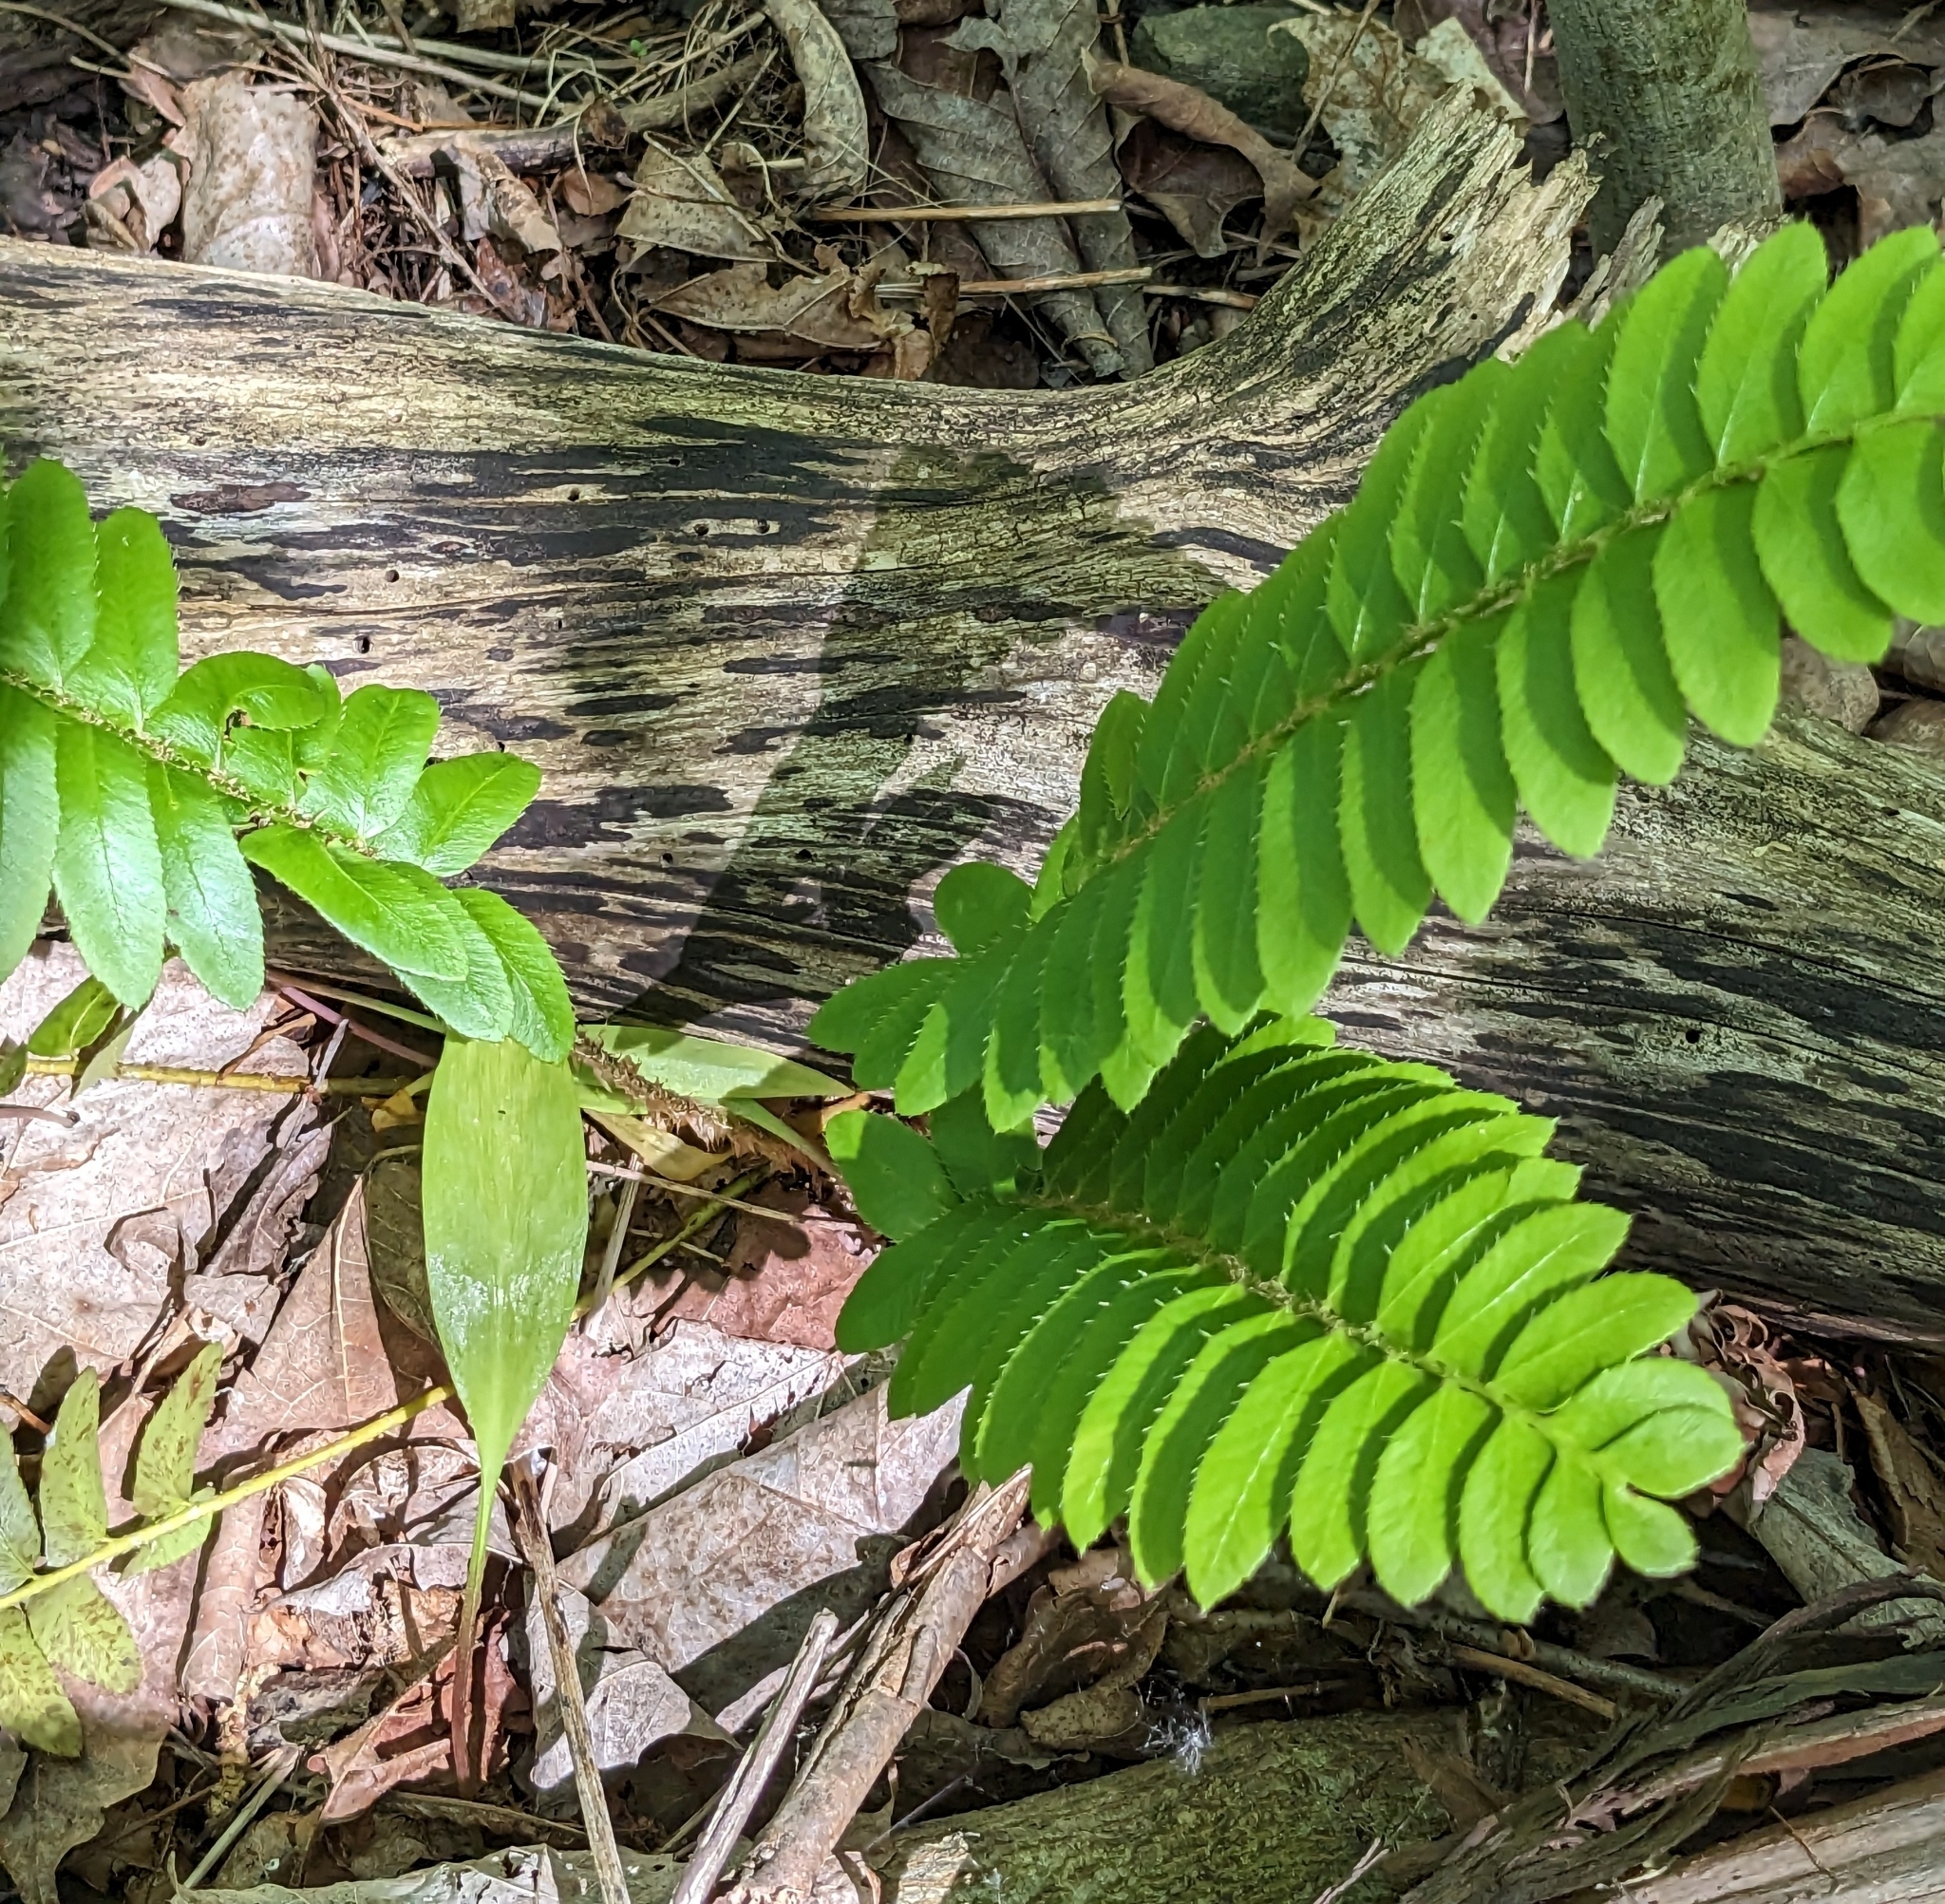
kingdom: Plantae
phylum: Tracheophyta
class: Polypodiopsida
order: Polypodiales
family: Dryopteridaceae
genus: Polystichum
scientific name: Polystichum acrostichoides
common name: Christmas fern
